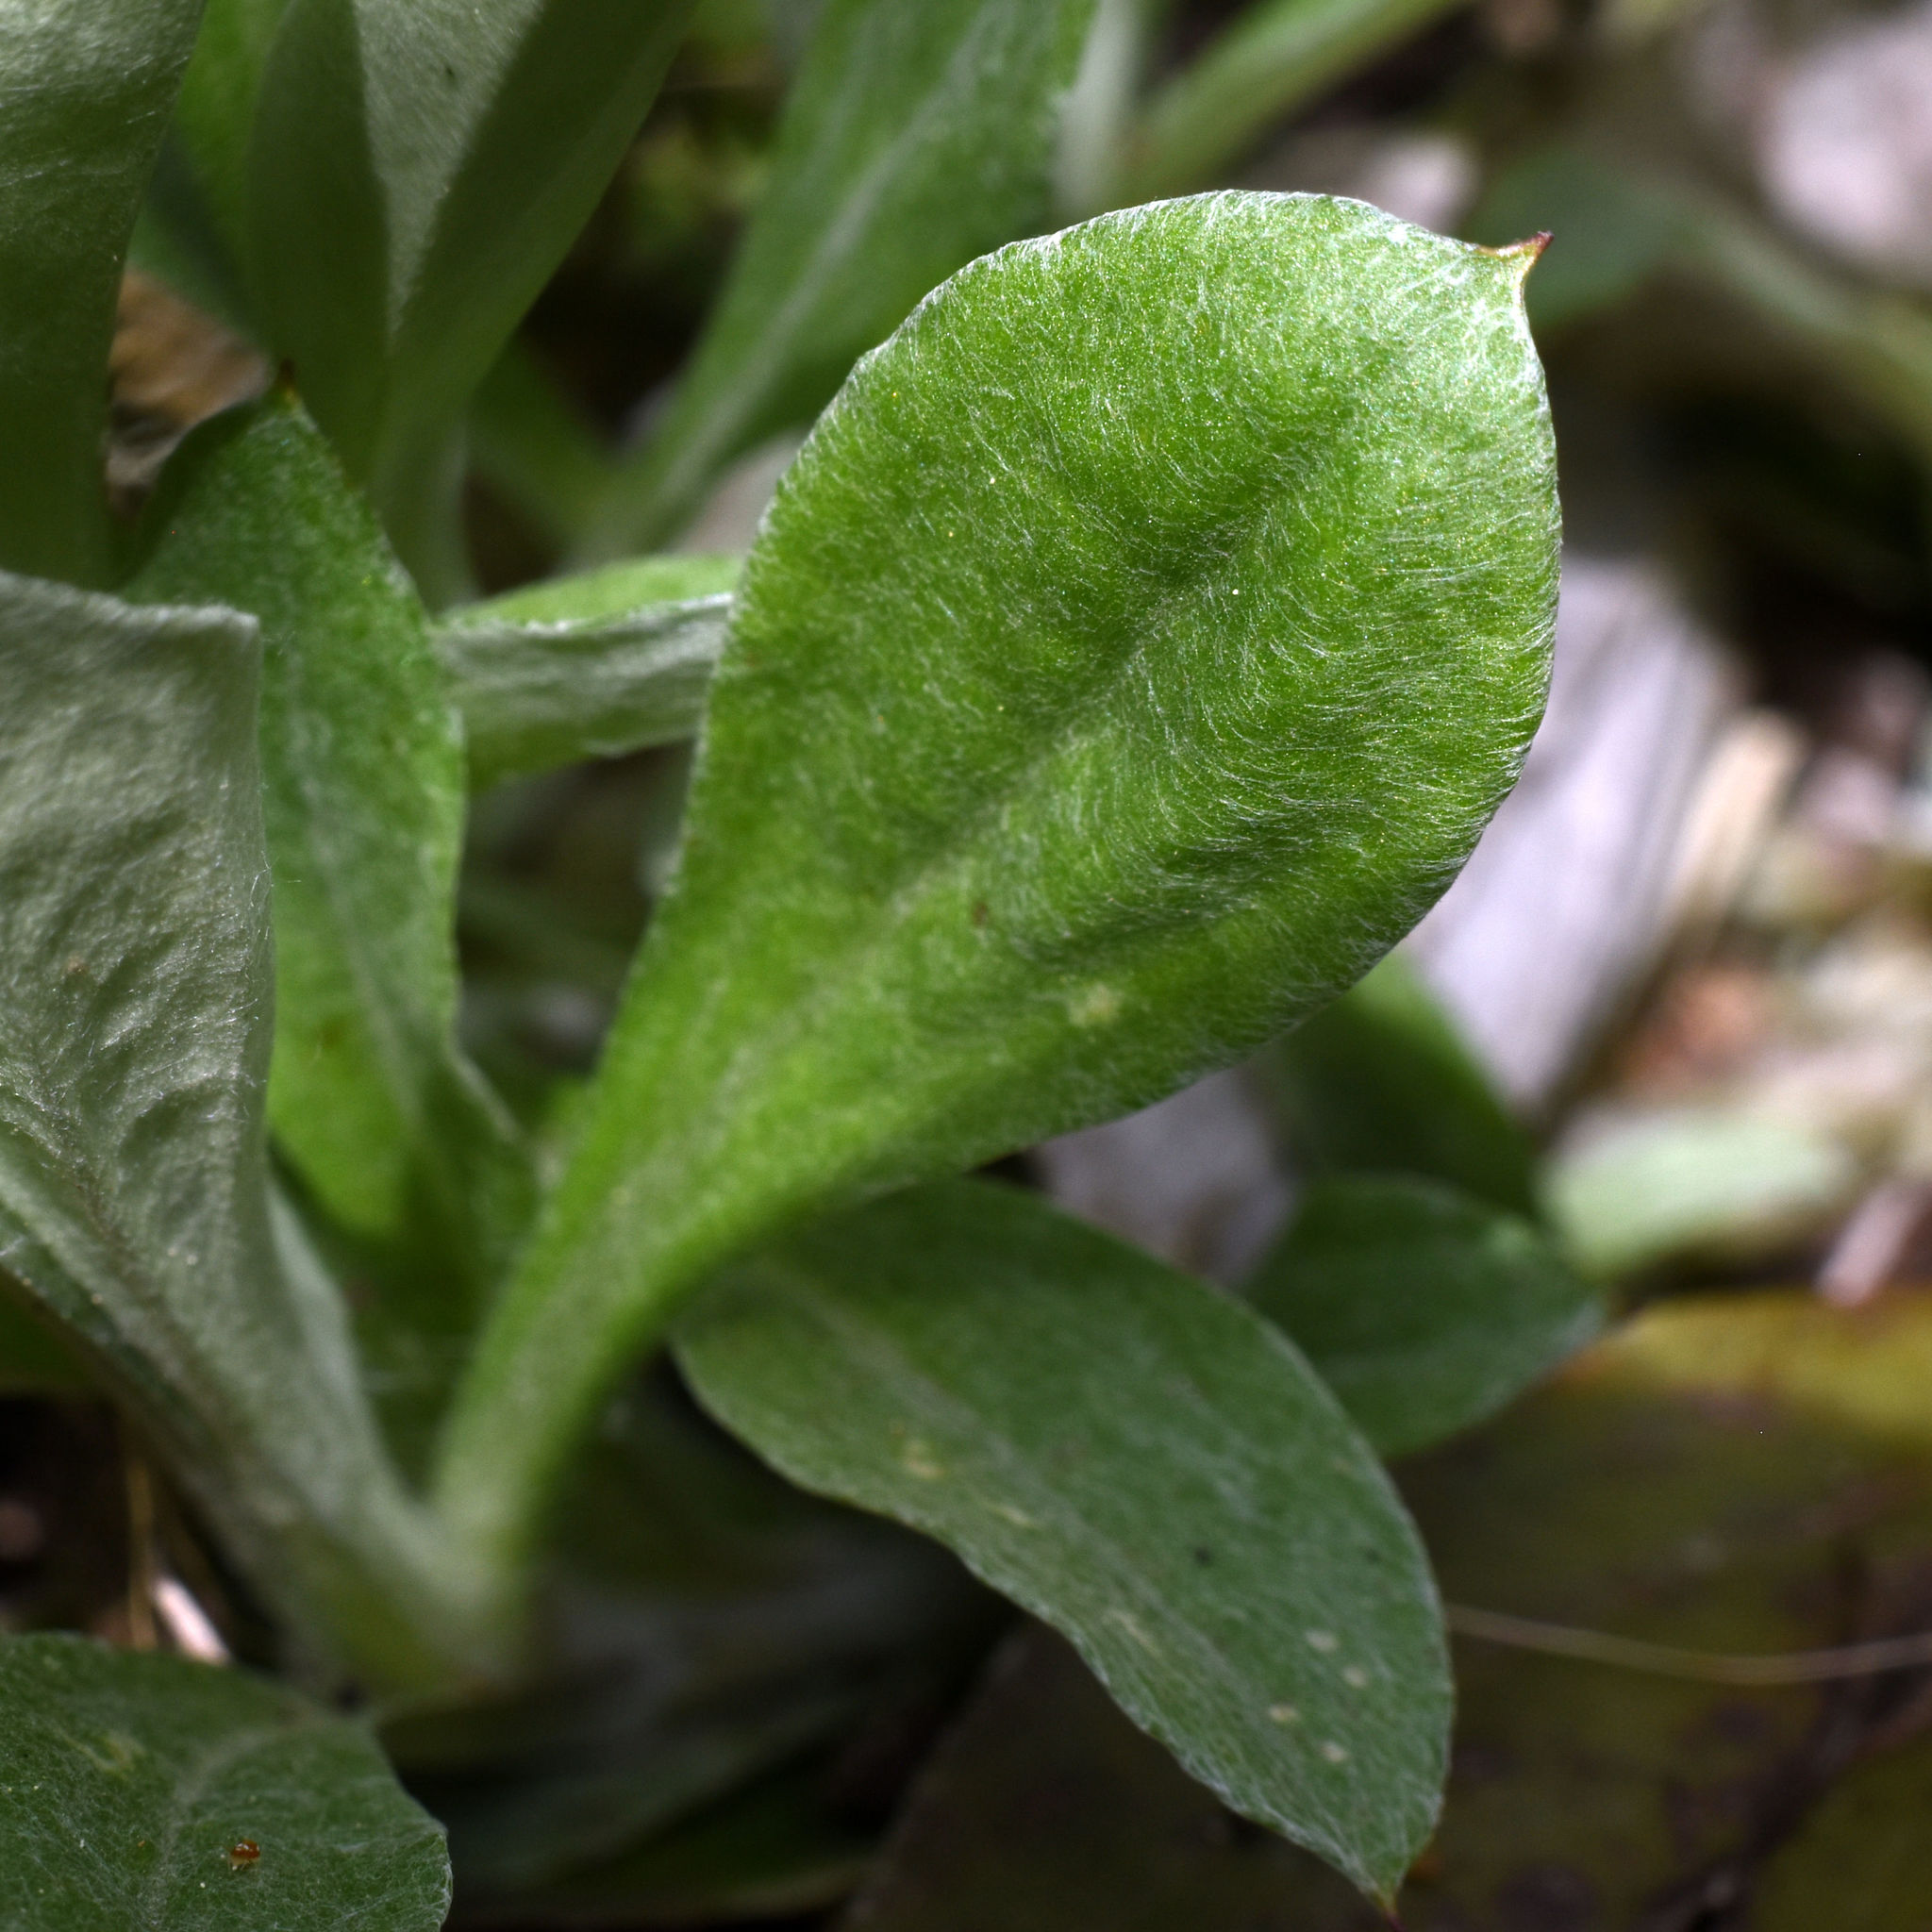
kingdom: Plantae
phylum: Tracheophyta
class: Magnoliopsida
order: Asterales
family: Asteraceae
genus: Antennaria
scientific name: Antennaria neglecta
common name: Field pussytoes
